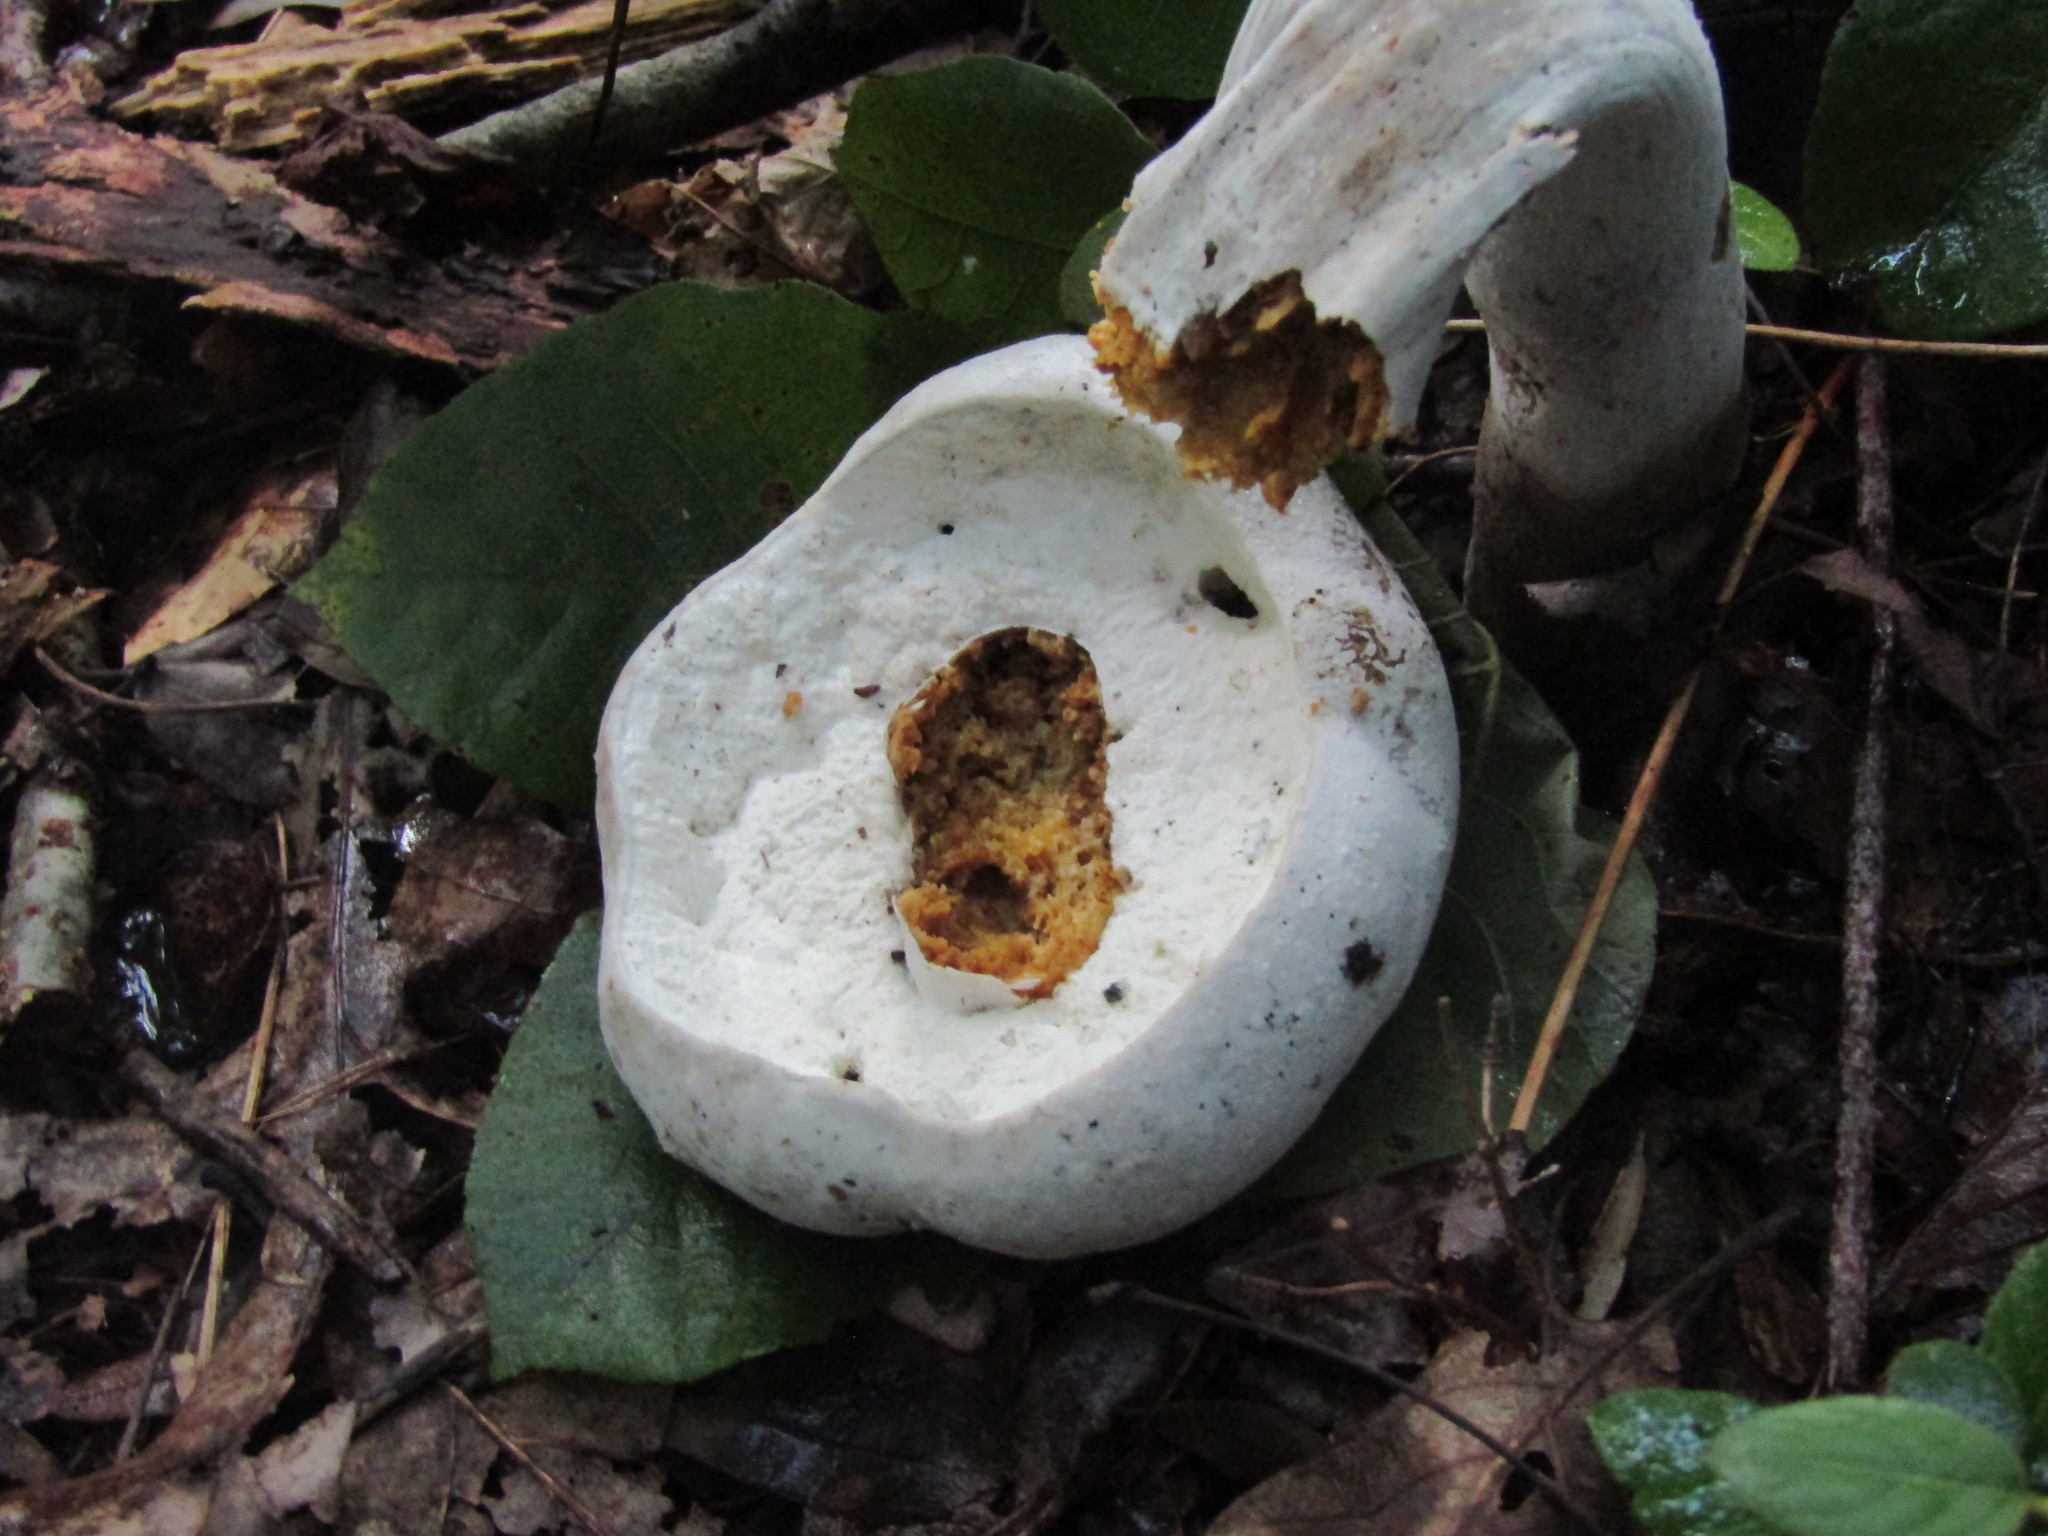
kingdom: Fungi
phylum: Ascomycota
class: Sordariomycetes
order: Hypocreales
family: Hypocreaceae
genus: Hypomyces
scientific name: Hypomyces chrysospermus
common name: Bolete mould
